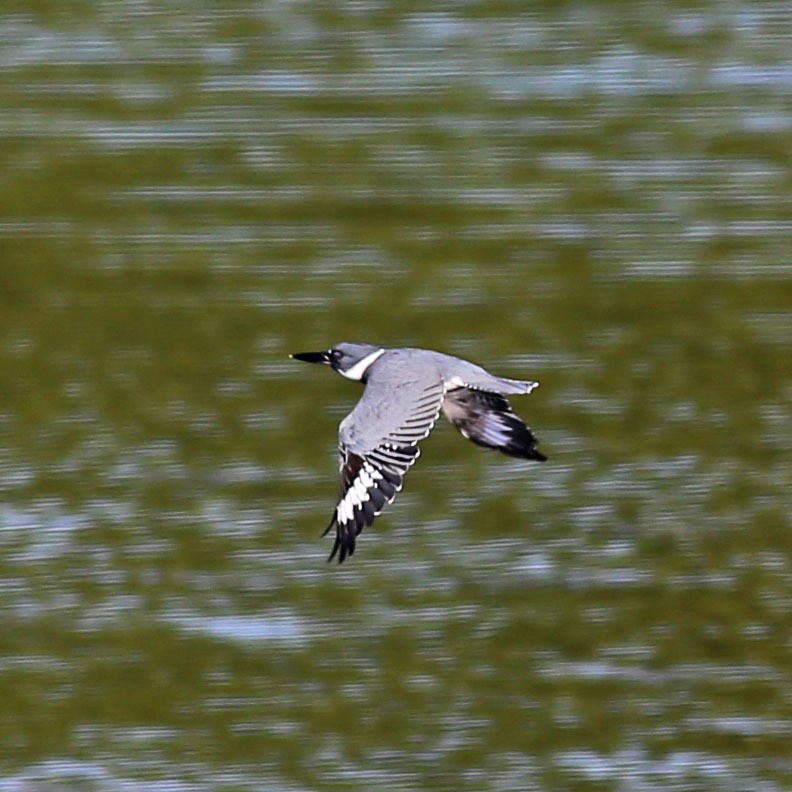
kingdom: Animalia
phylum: Chordata
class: Aves
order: Coraciiformes
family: Alcedinidae
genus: Megaceryle
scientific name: Megaceryle alcyon
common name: Belted kingfisher
